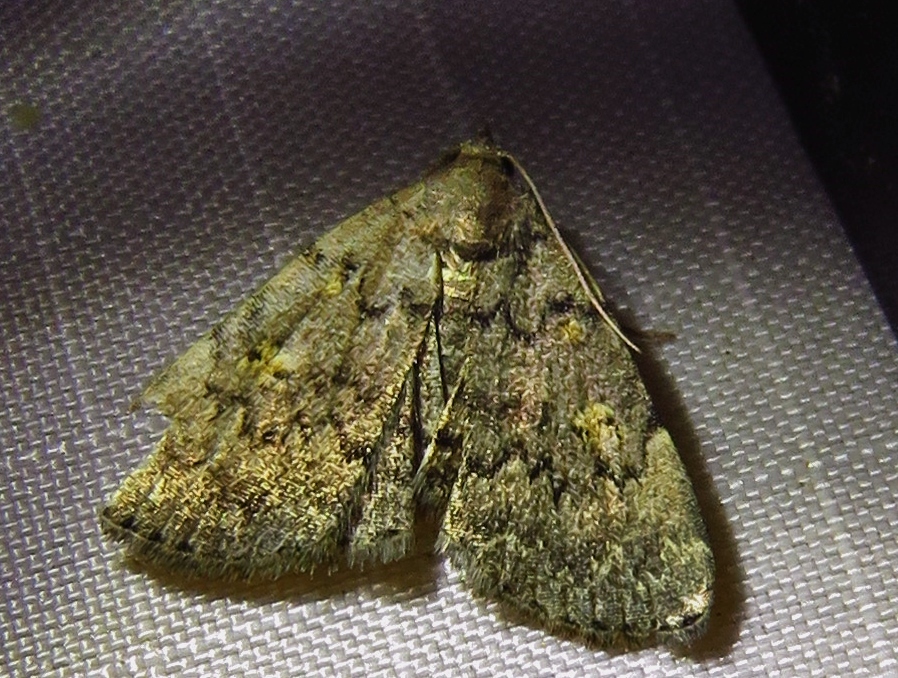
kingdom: Animalia
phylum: Arthropoda
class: Insecta
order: Lepidoptera
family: Erebidae
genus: Idia
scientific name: Idia aemula
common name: Common idia moth
